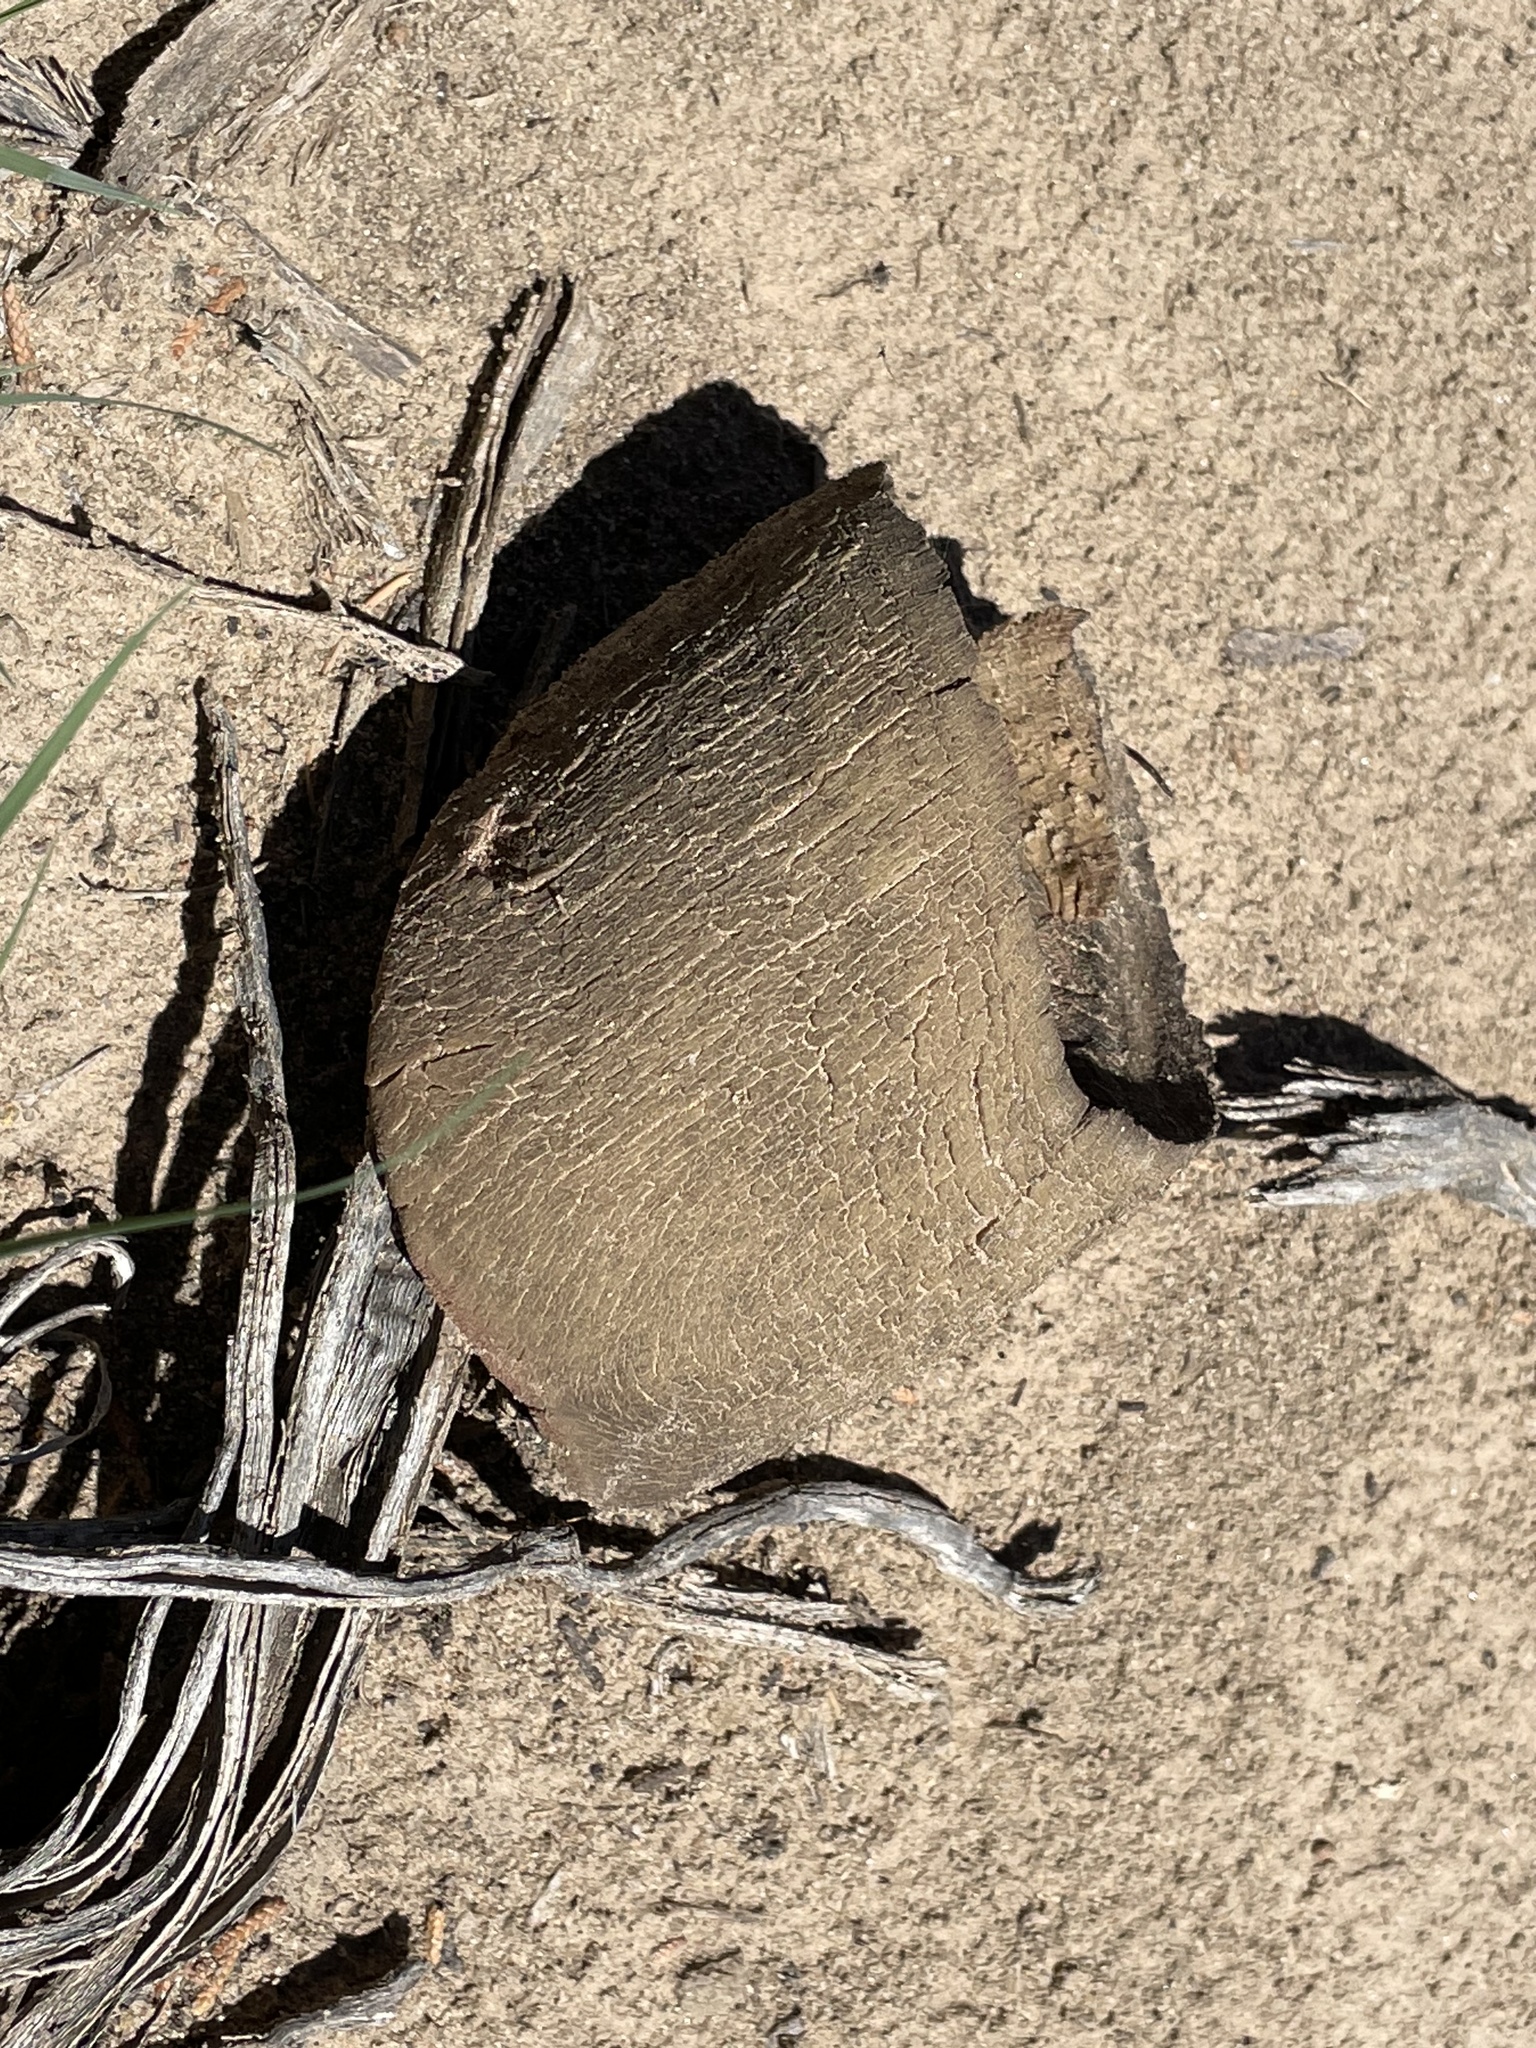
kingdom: Animalia
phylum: Chordata
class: Mammalia
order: Perissodactyla
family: Equidae
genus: Equus
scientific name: Equus caballus
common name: Horse
